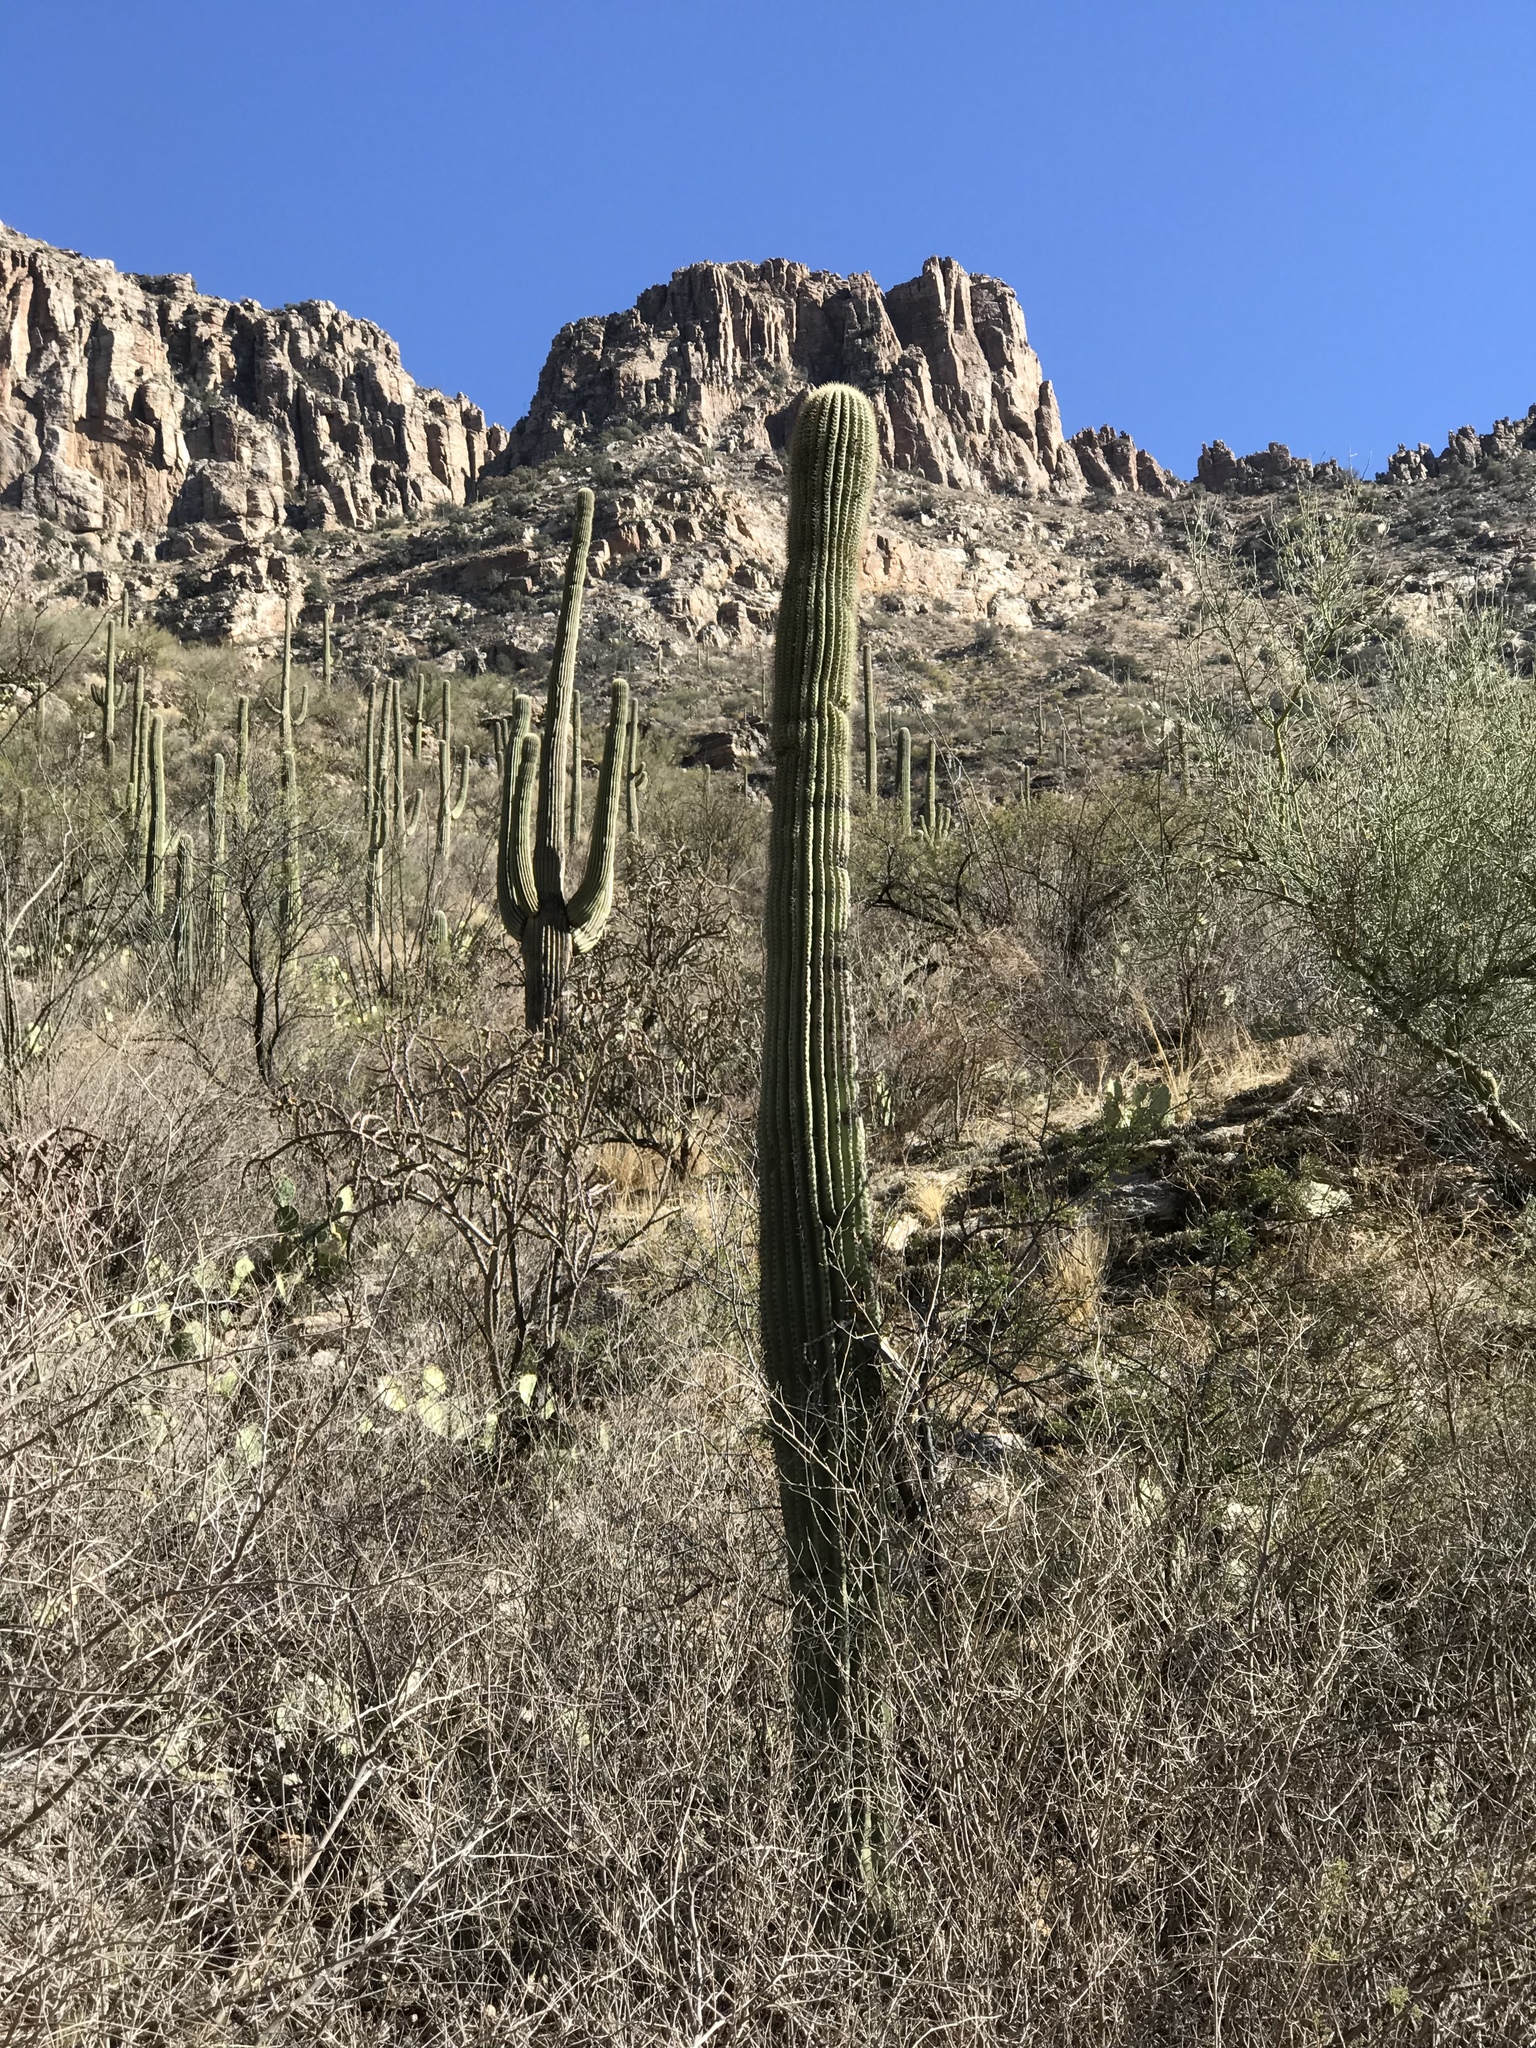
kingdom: Plantae
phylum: Tracheophyta
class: Magnoliopsida
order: Caryophyllales
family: Cactaceae
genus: Carnegiea
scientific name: Carnegiea gigantea
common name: Saguaro
